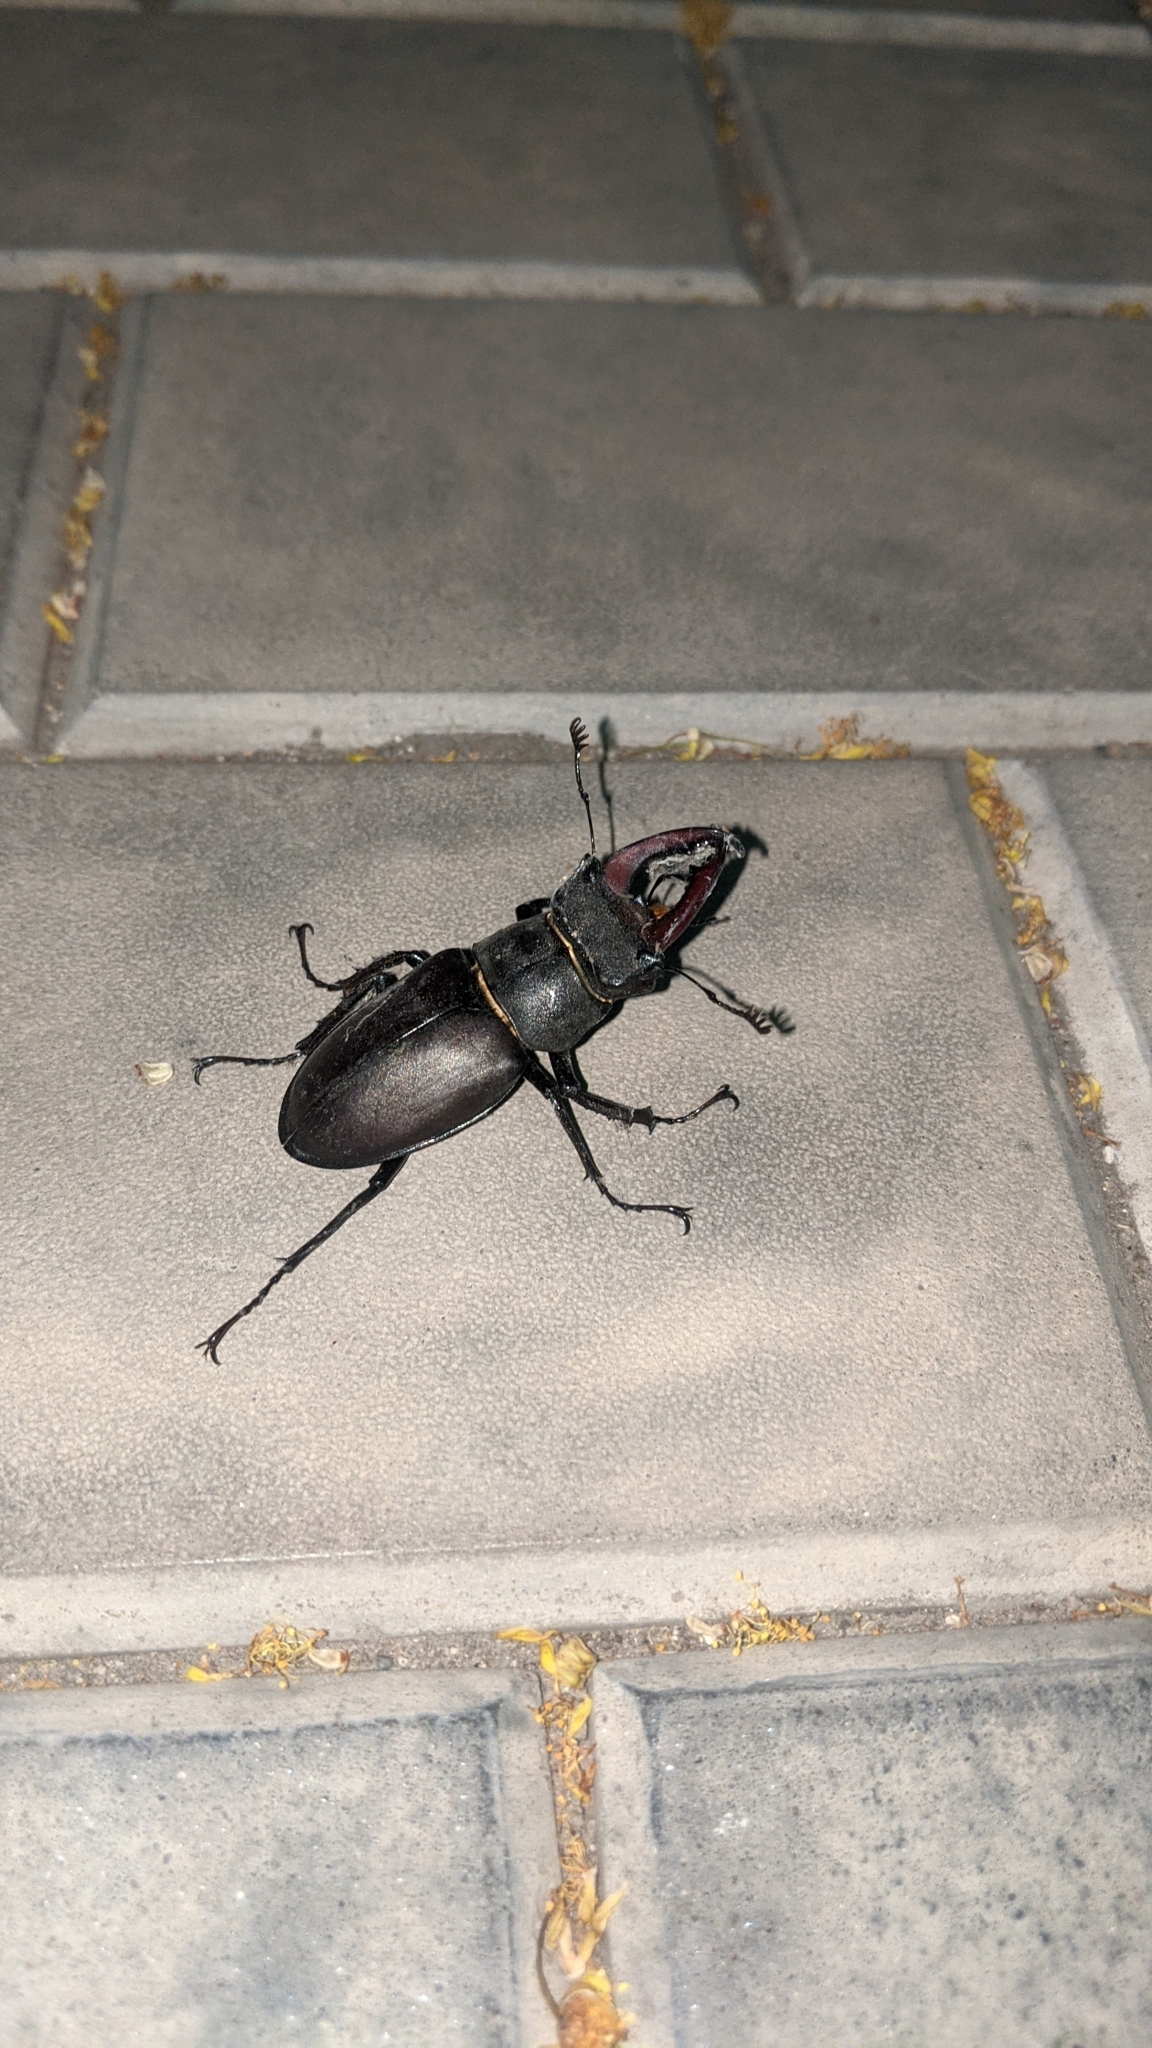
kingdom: Animalia
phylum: Arthropoda
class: Insecta
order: Coleoptera
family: Lucanidae
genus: Lucanus
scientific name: Lucanus cervus
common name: Stag beetle
